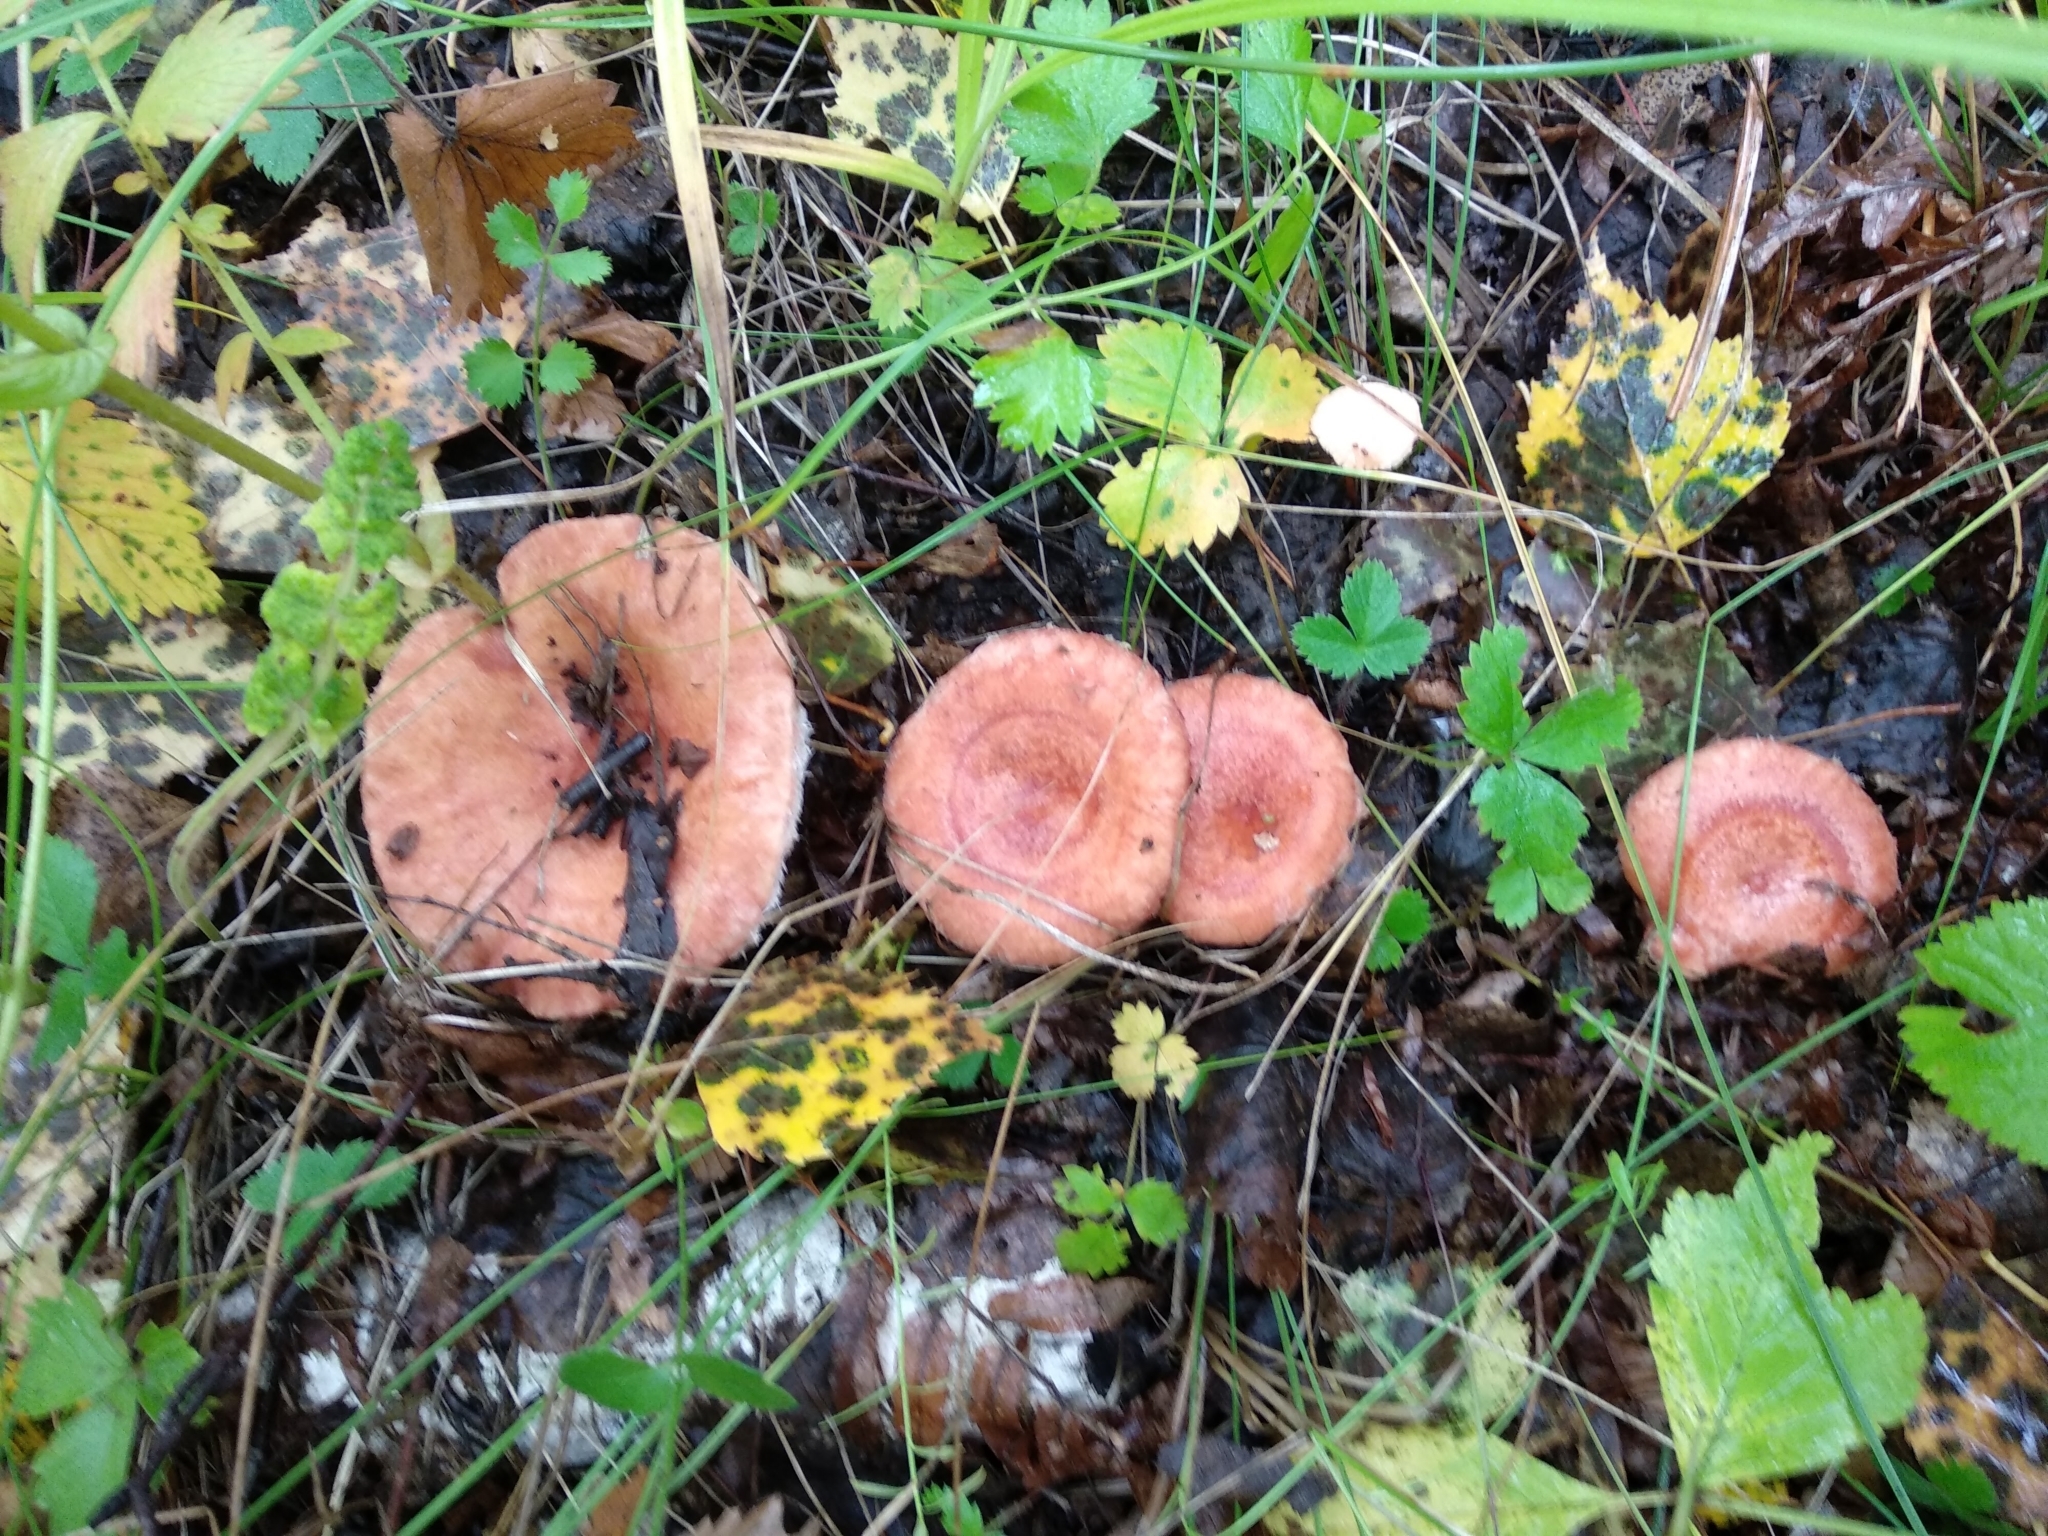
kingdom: Fungi
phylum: Basidiomycota
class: Agaricomycetes
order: Russulales
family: Russulaceae
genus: Lactarius
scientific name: Lactarius torminosus
